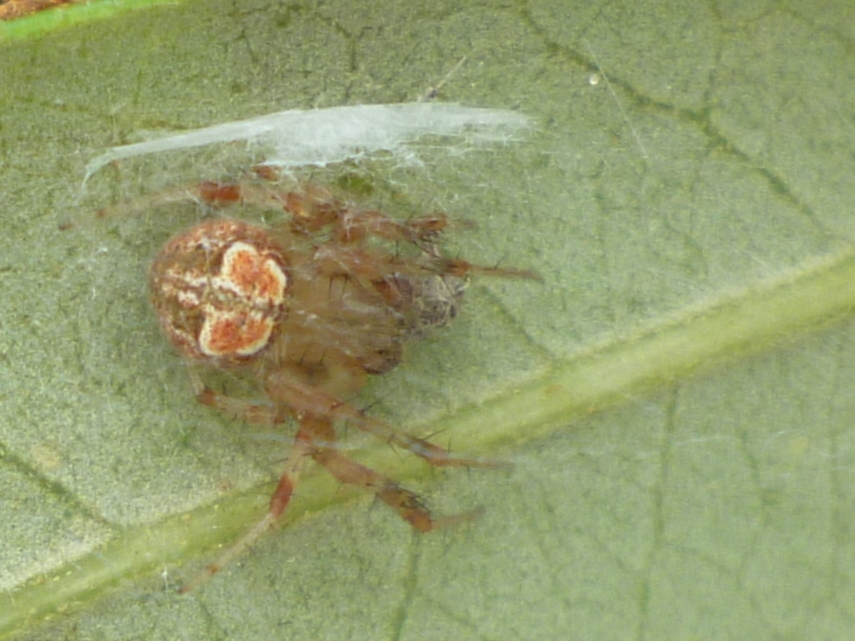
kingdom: Animalia
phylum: Arthropoda
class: Arachnida
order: Araneae
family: Araneidae
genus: Araneus
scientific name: Araneus pegnia
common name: Orb weavers
